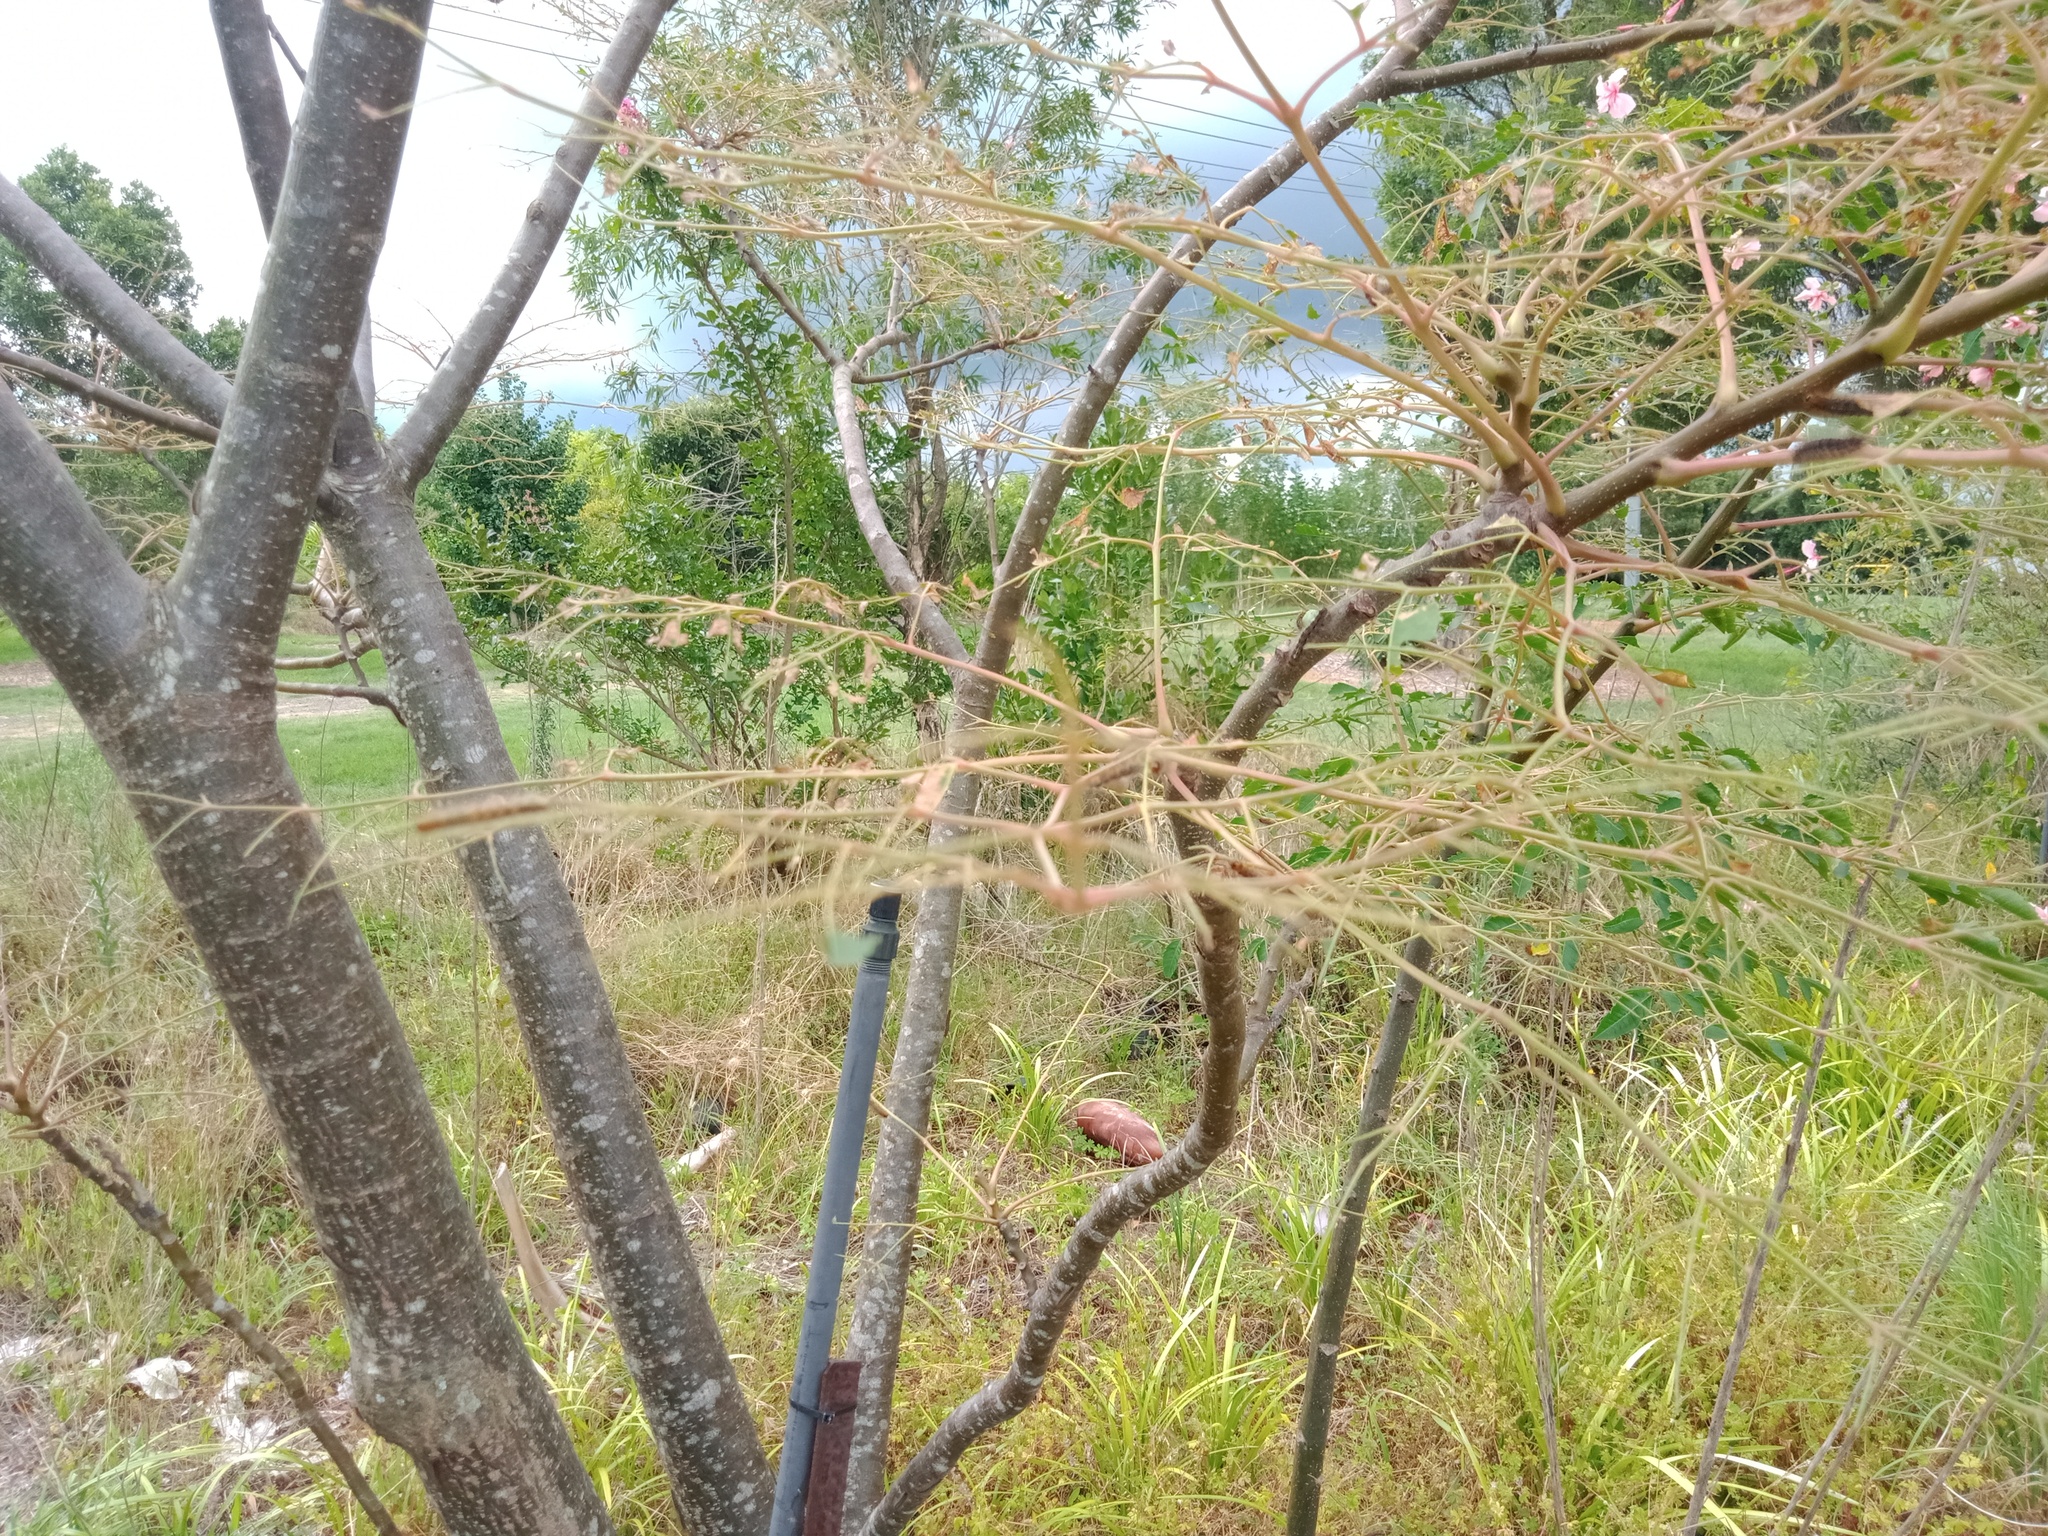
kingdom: Animalia
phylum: Arthropoda
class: Insecta
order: Lepidoptera
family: Erebidae
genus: Leptocneria
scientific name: Leptocneria reducta
